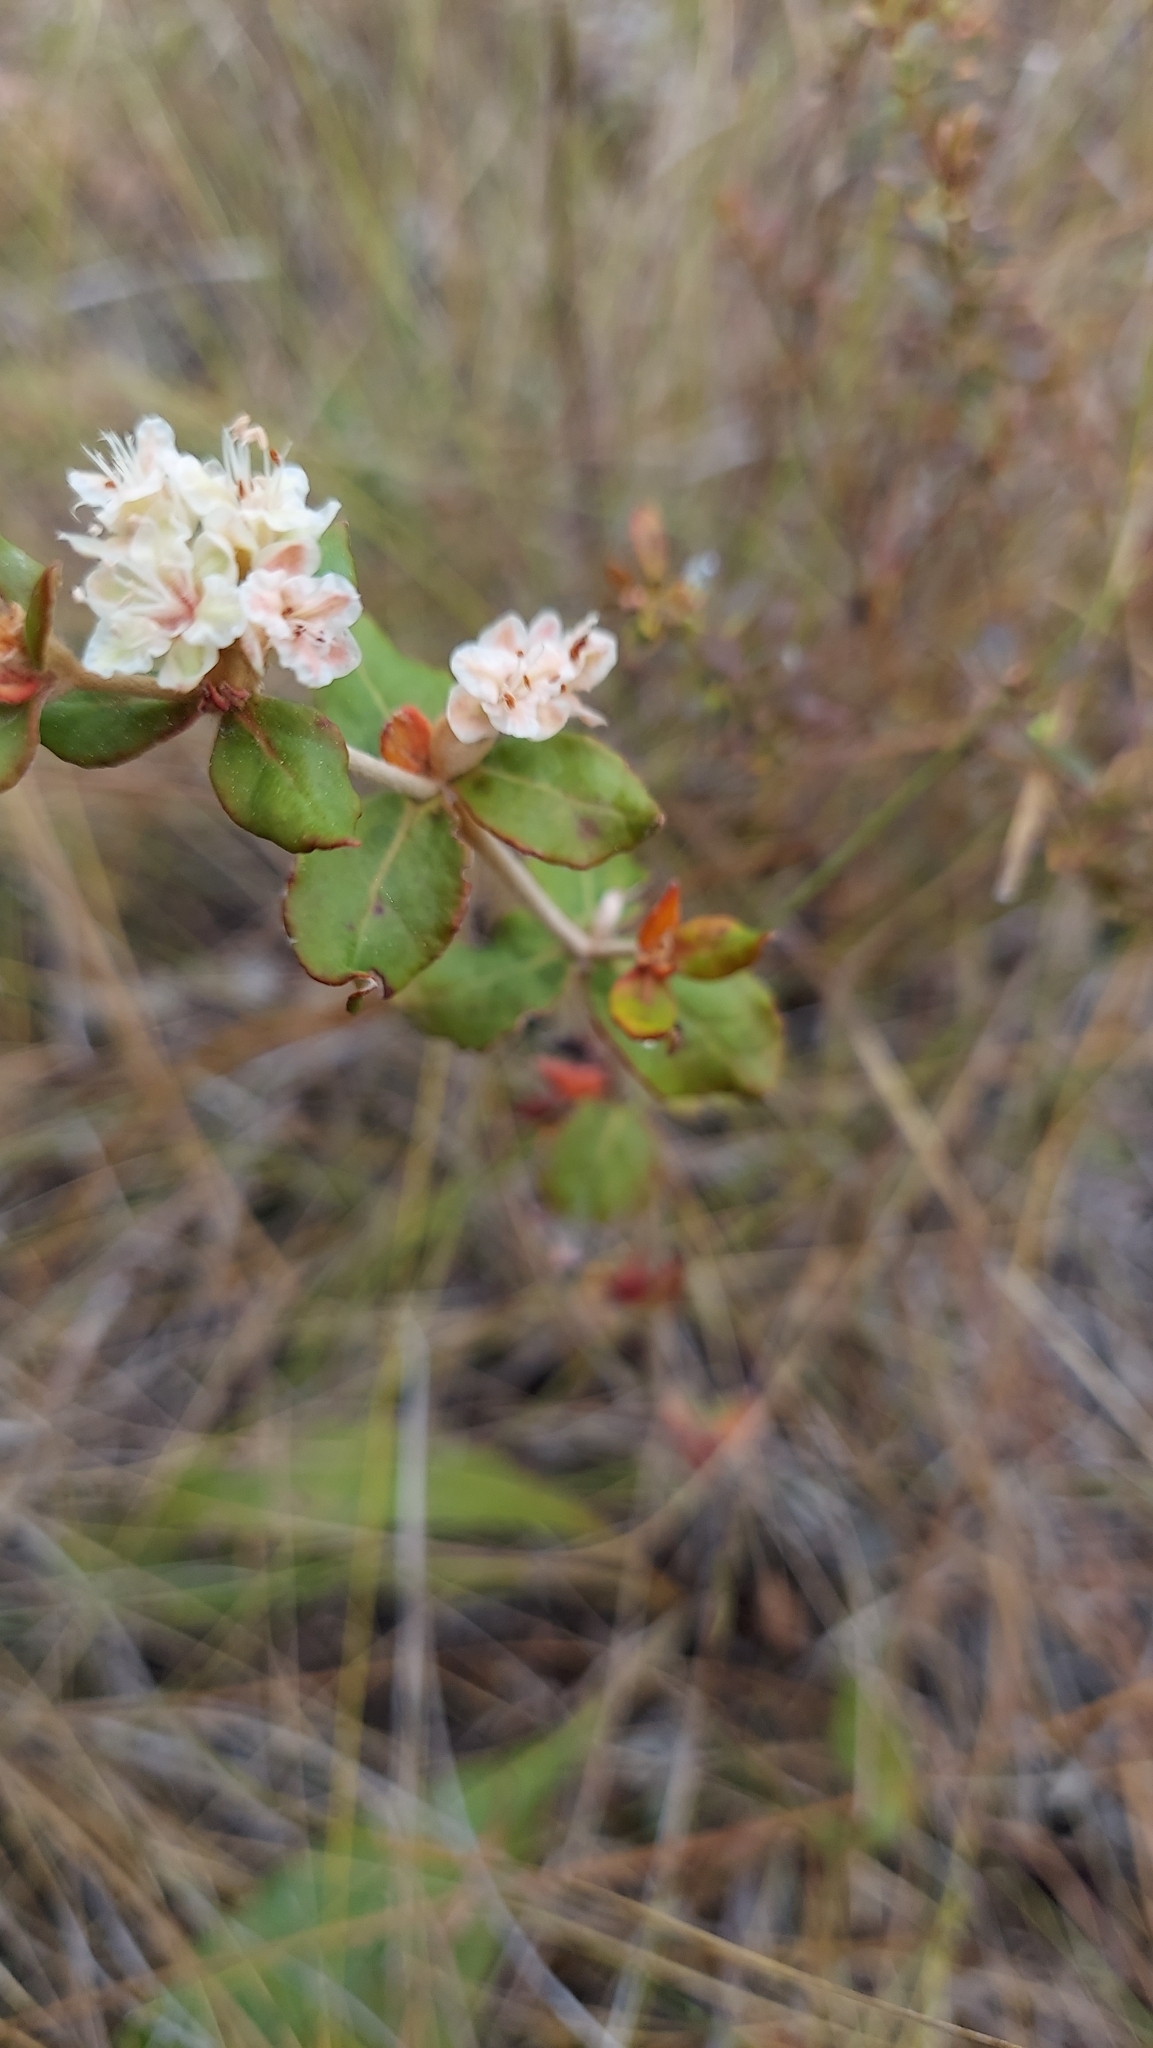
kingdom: Plantae
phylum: Tracheophyta
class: Magnoliopsida
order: Caryophyllales
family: Polygonaceae
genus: Eriogonum
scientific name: Eriogonum tomentosum
